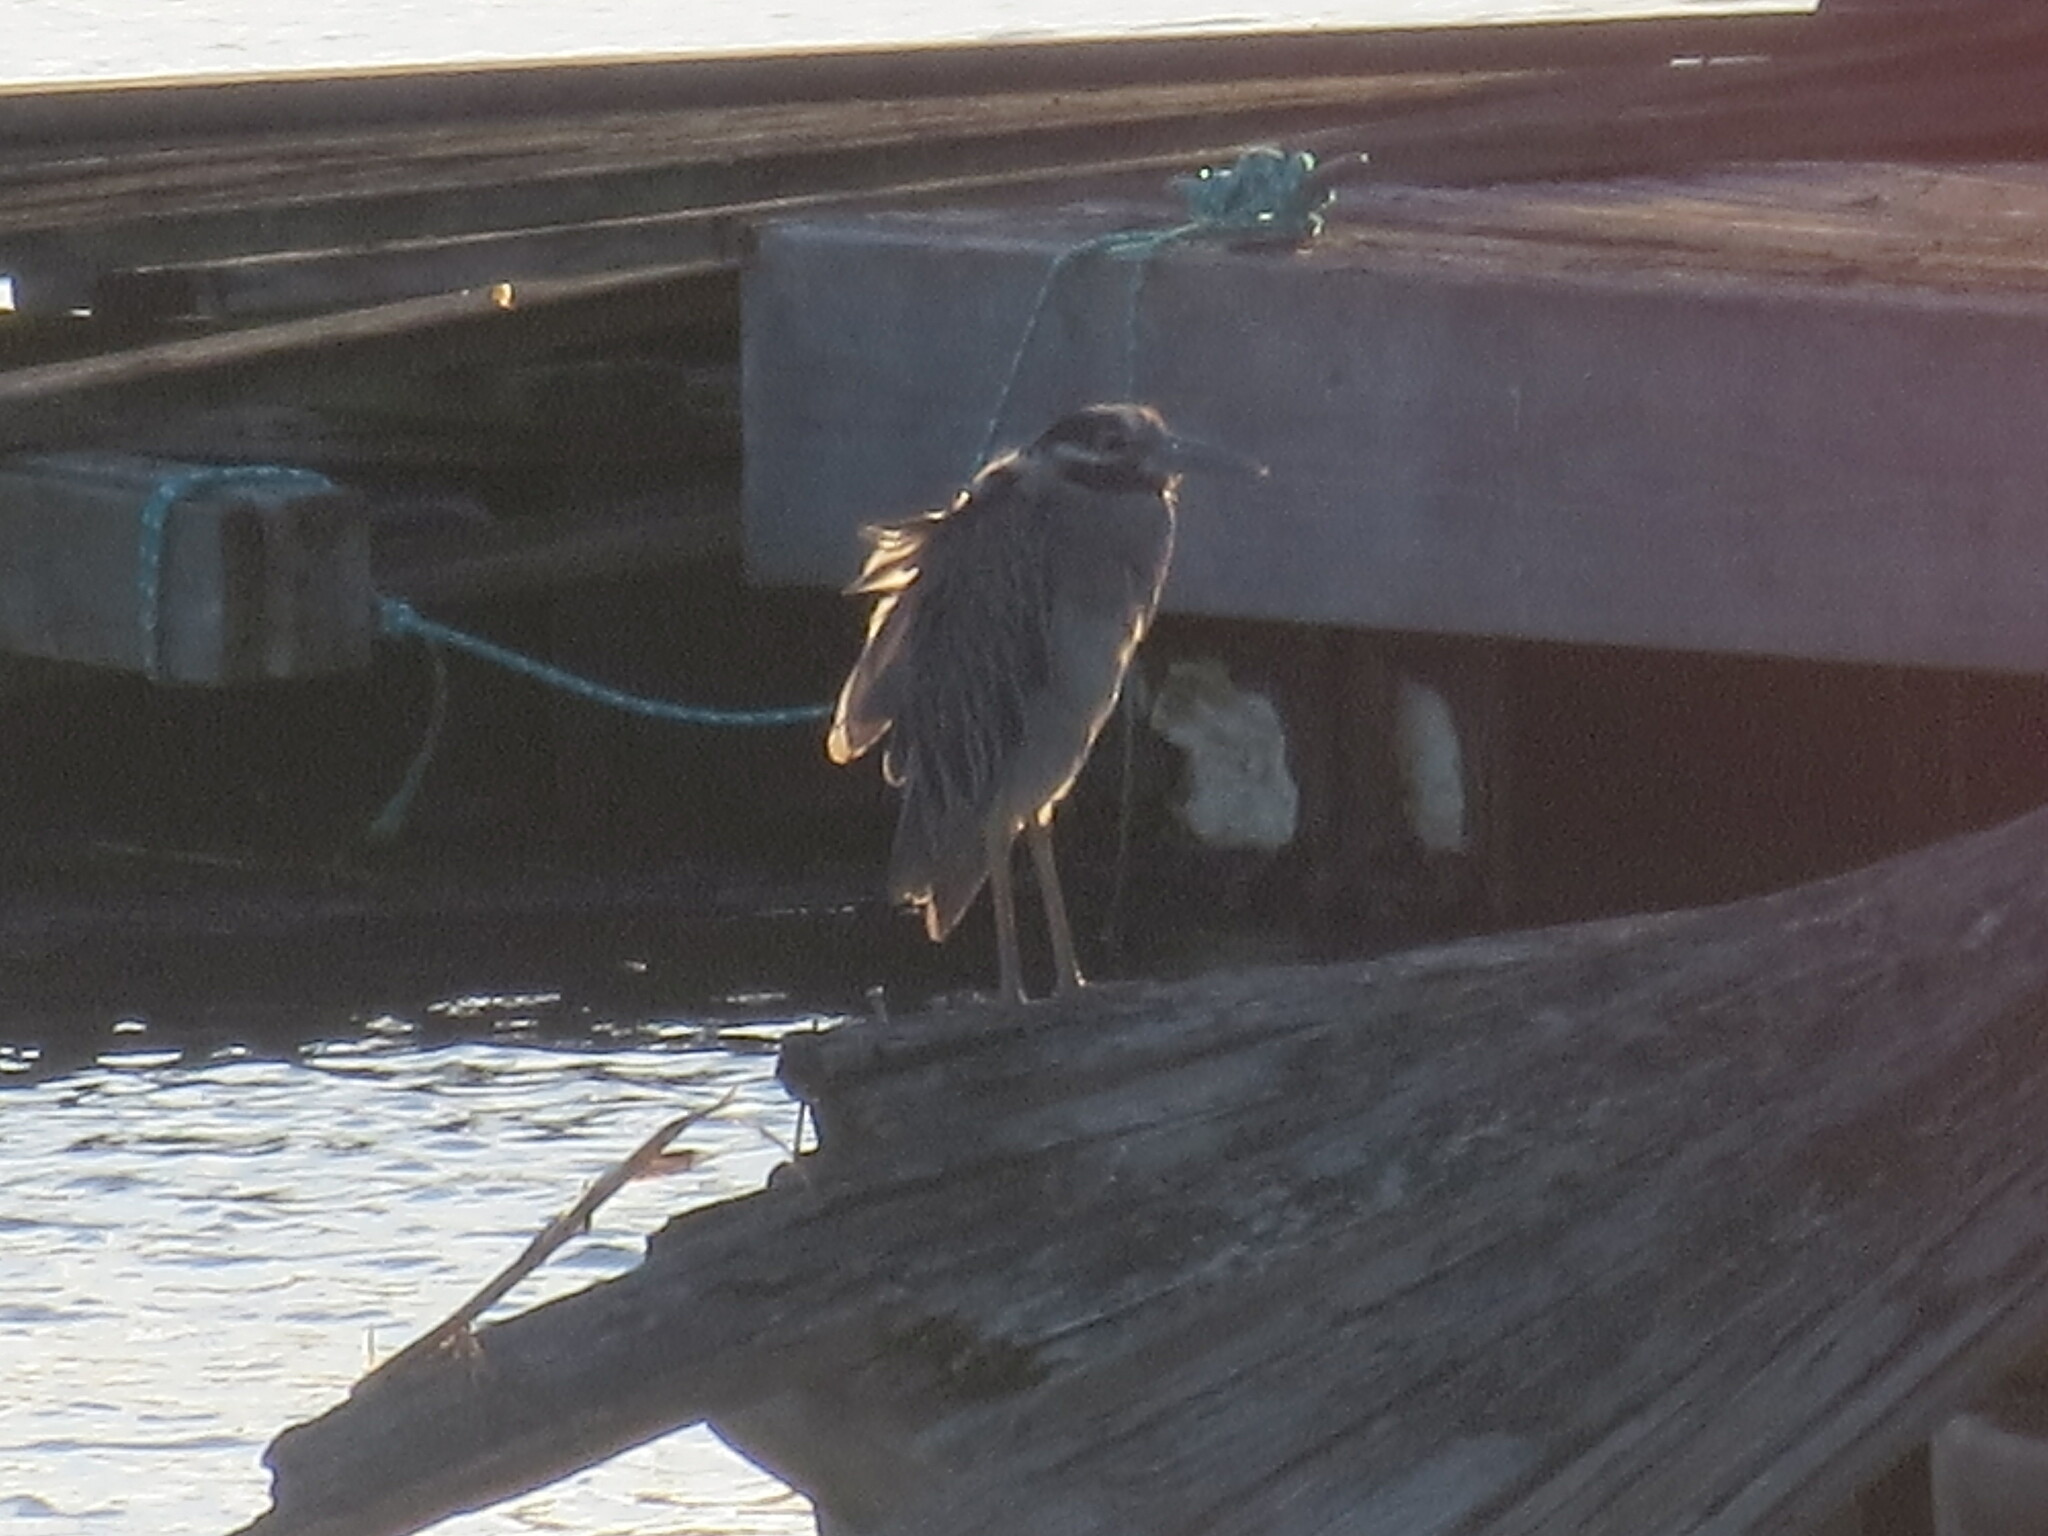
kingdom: Animalia
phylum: Chordata
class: Aves
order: Pelecaniformes
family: Ardeidae
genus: Nyctanassa
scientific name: Nyctanassa violacea
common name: Yellow-crowned night heron
